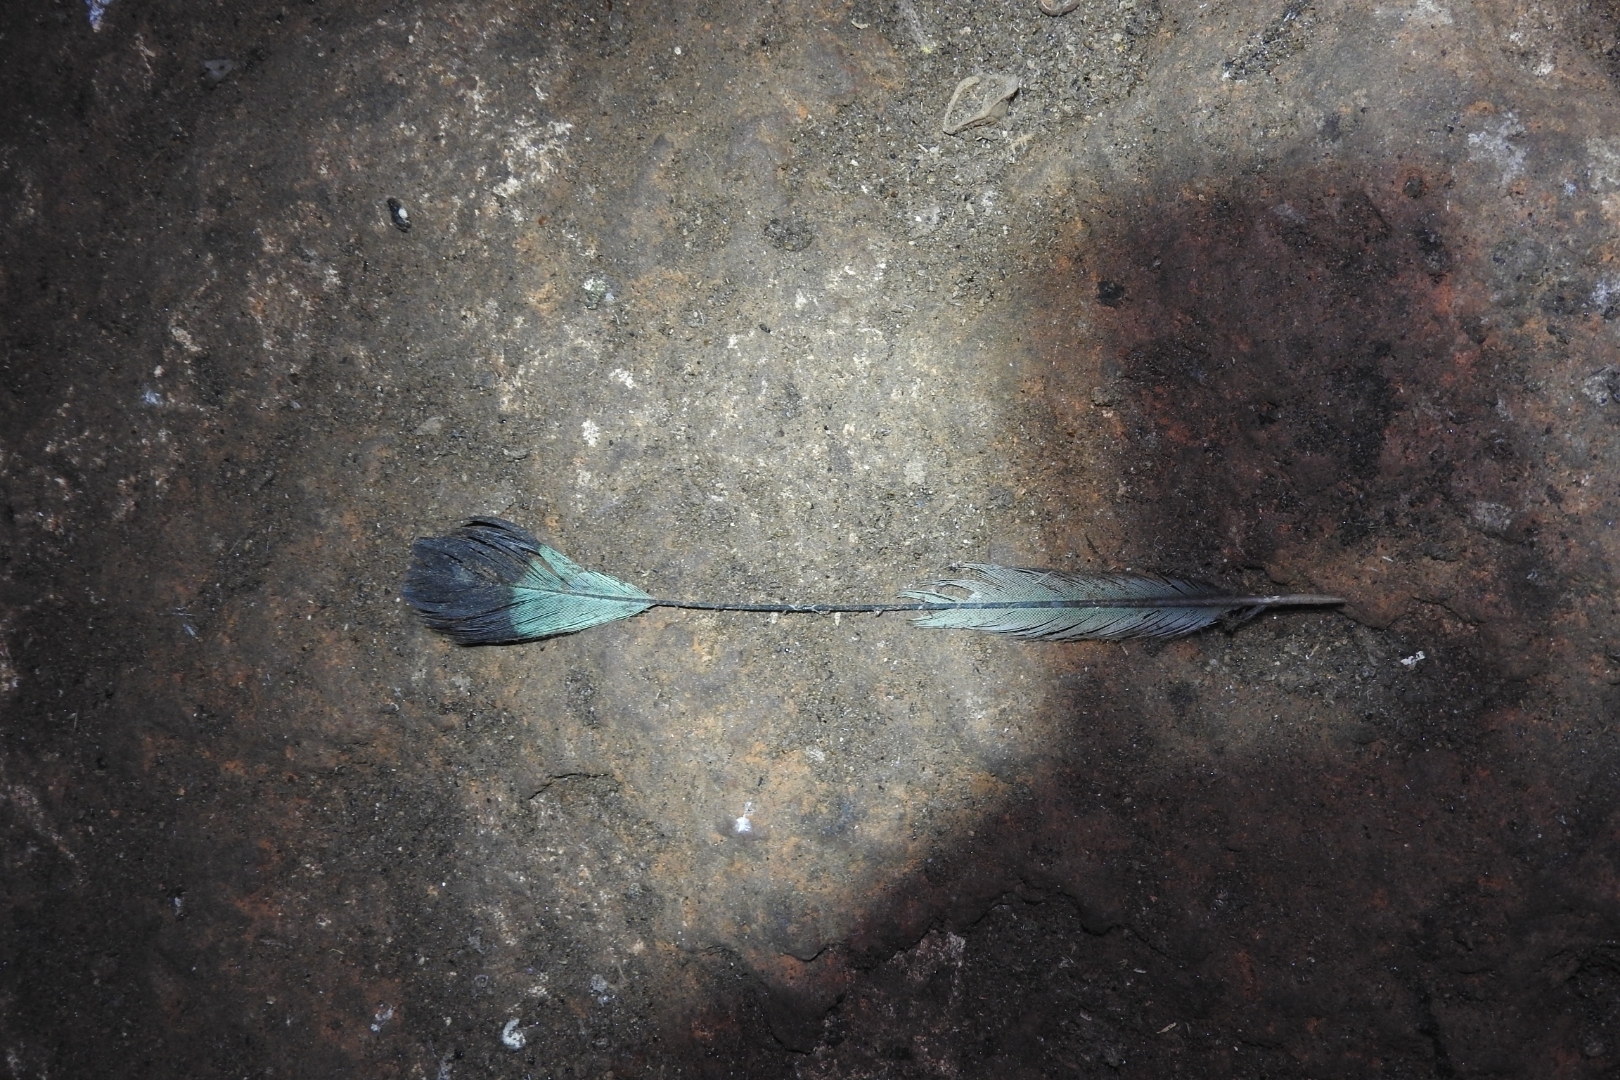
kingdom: Animalia
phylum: Chordata
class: Aves
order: Coraciiformes
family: Momotidae
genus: Eumomota
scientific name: Eumomota superciliosa
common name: Turquoise-browed motmot
